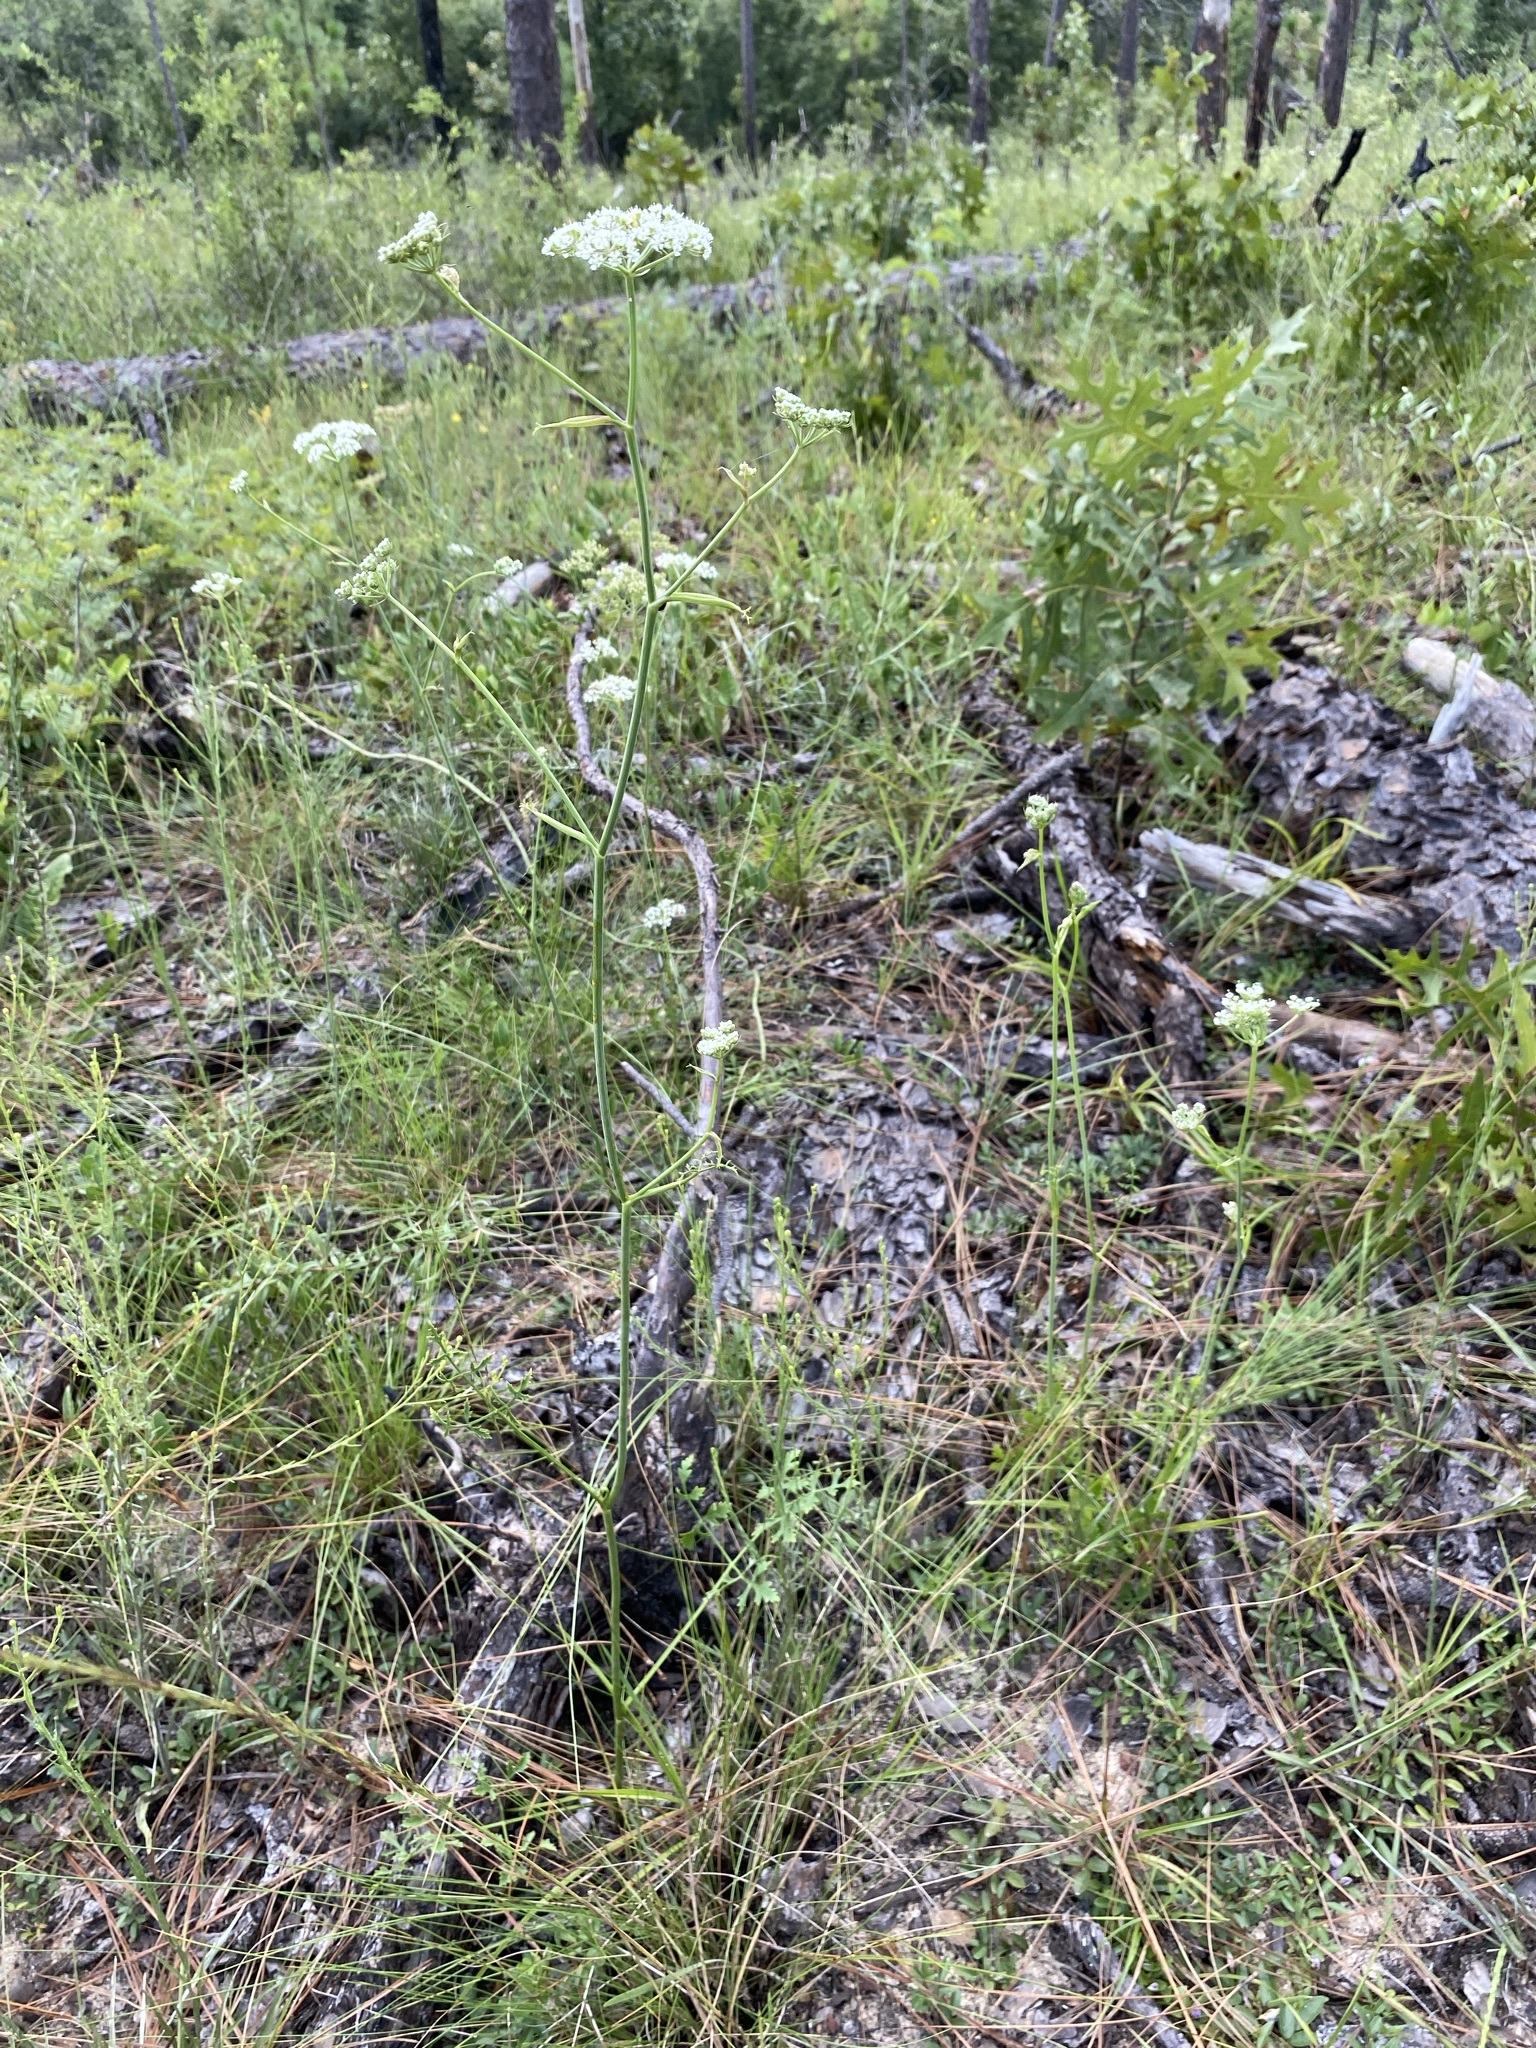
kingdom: Plantae
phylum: Tracheophyta
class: Magnoliopsida
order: Apiales
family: Apiaceae
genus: Angelica
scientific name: Angelica venenosa
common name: Hairy angelica
